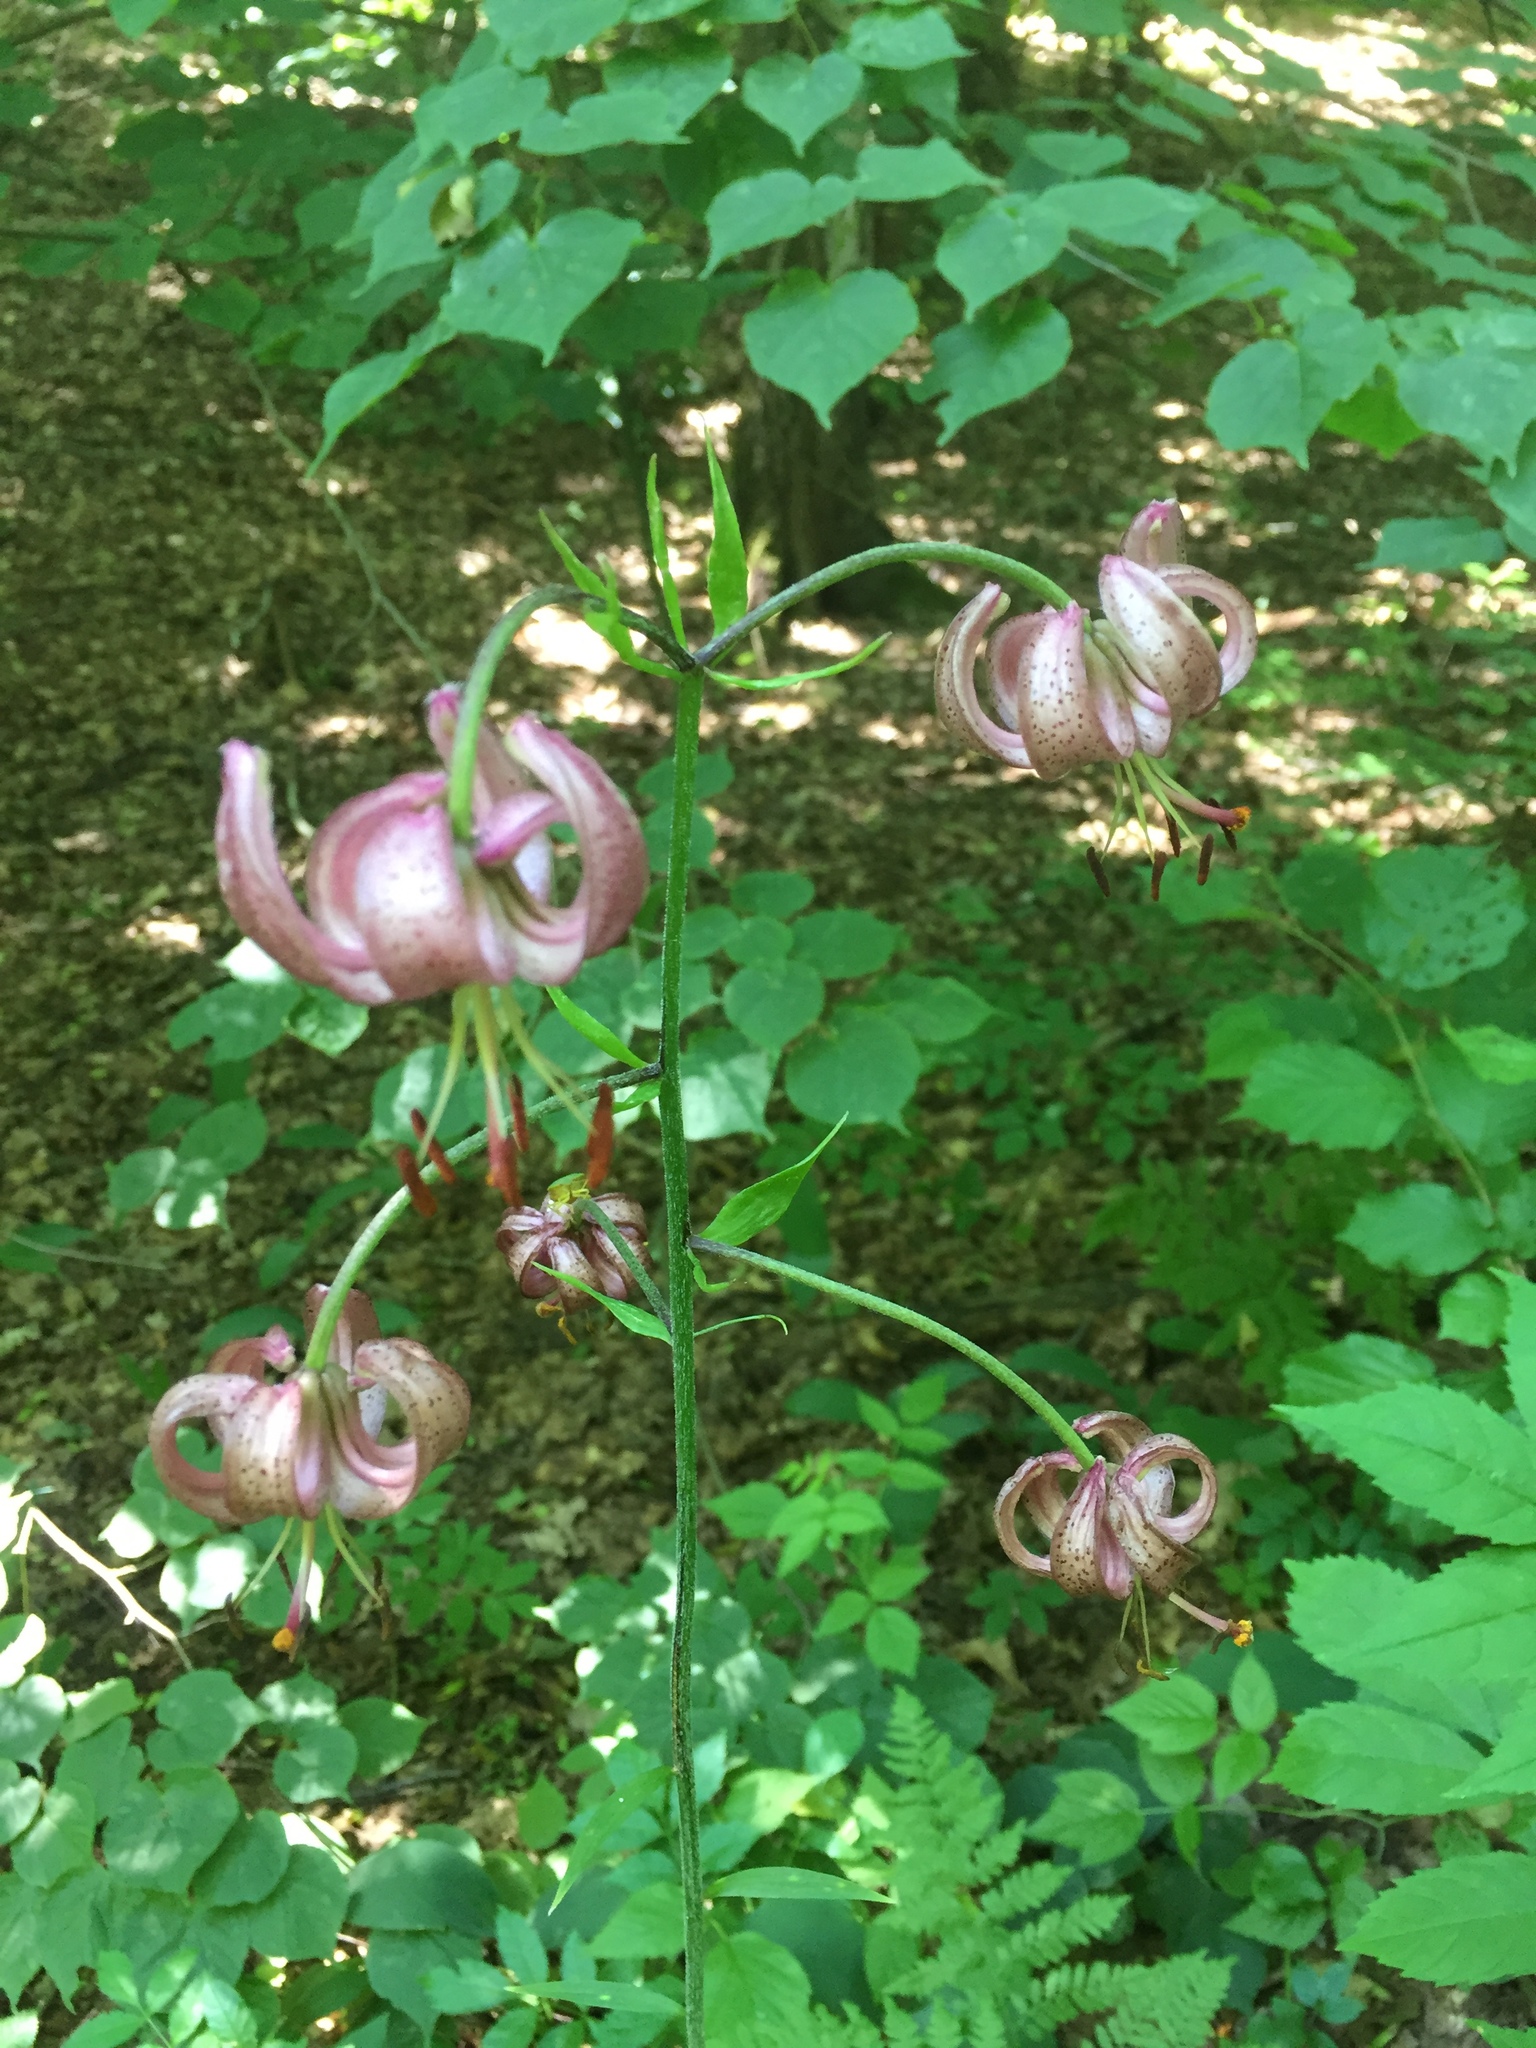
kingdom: Plantae
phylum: Tracheophyta
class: Liliopsida
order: Liliales
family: Liliaceae
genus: Lilium
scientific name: Lilium martagon
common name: Martagon lily
